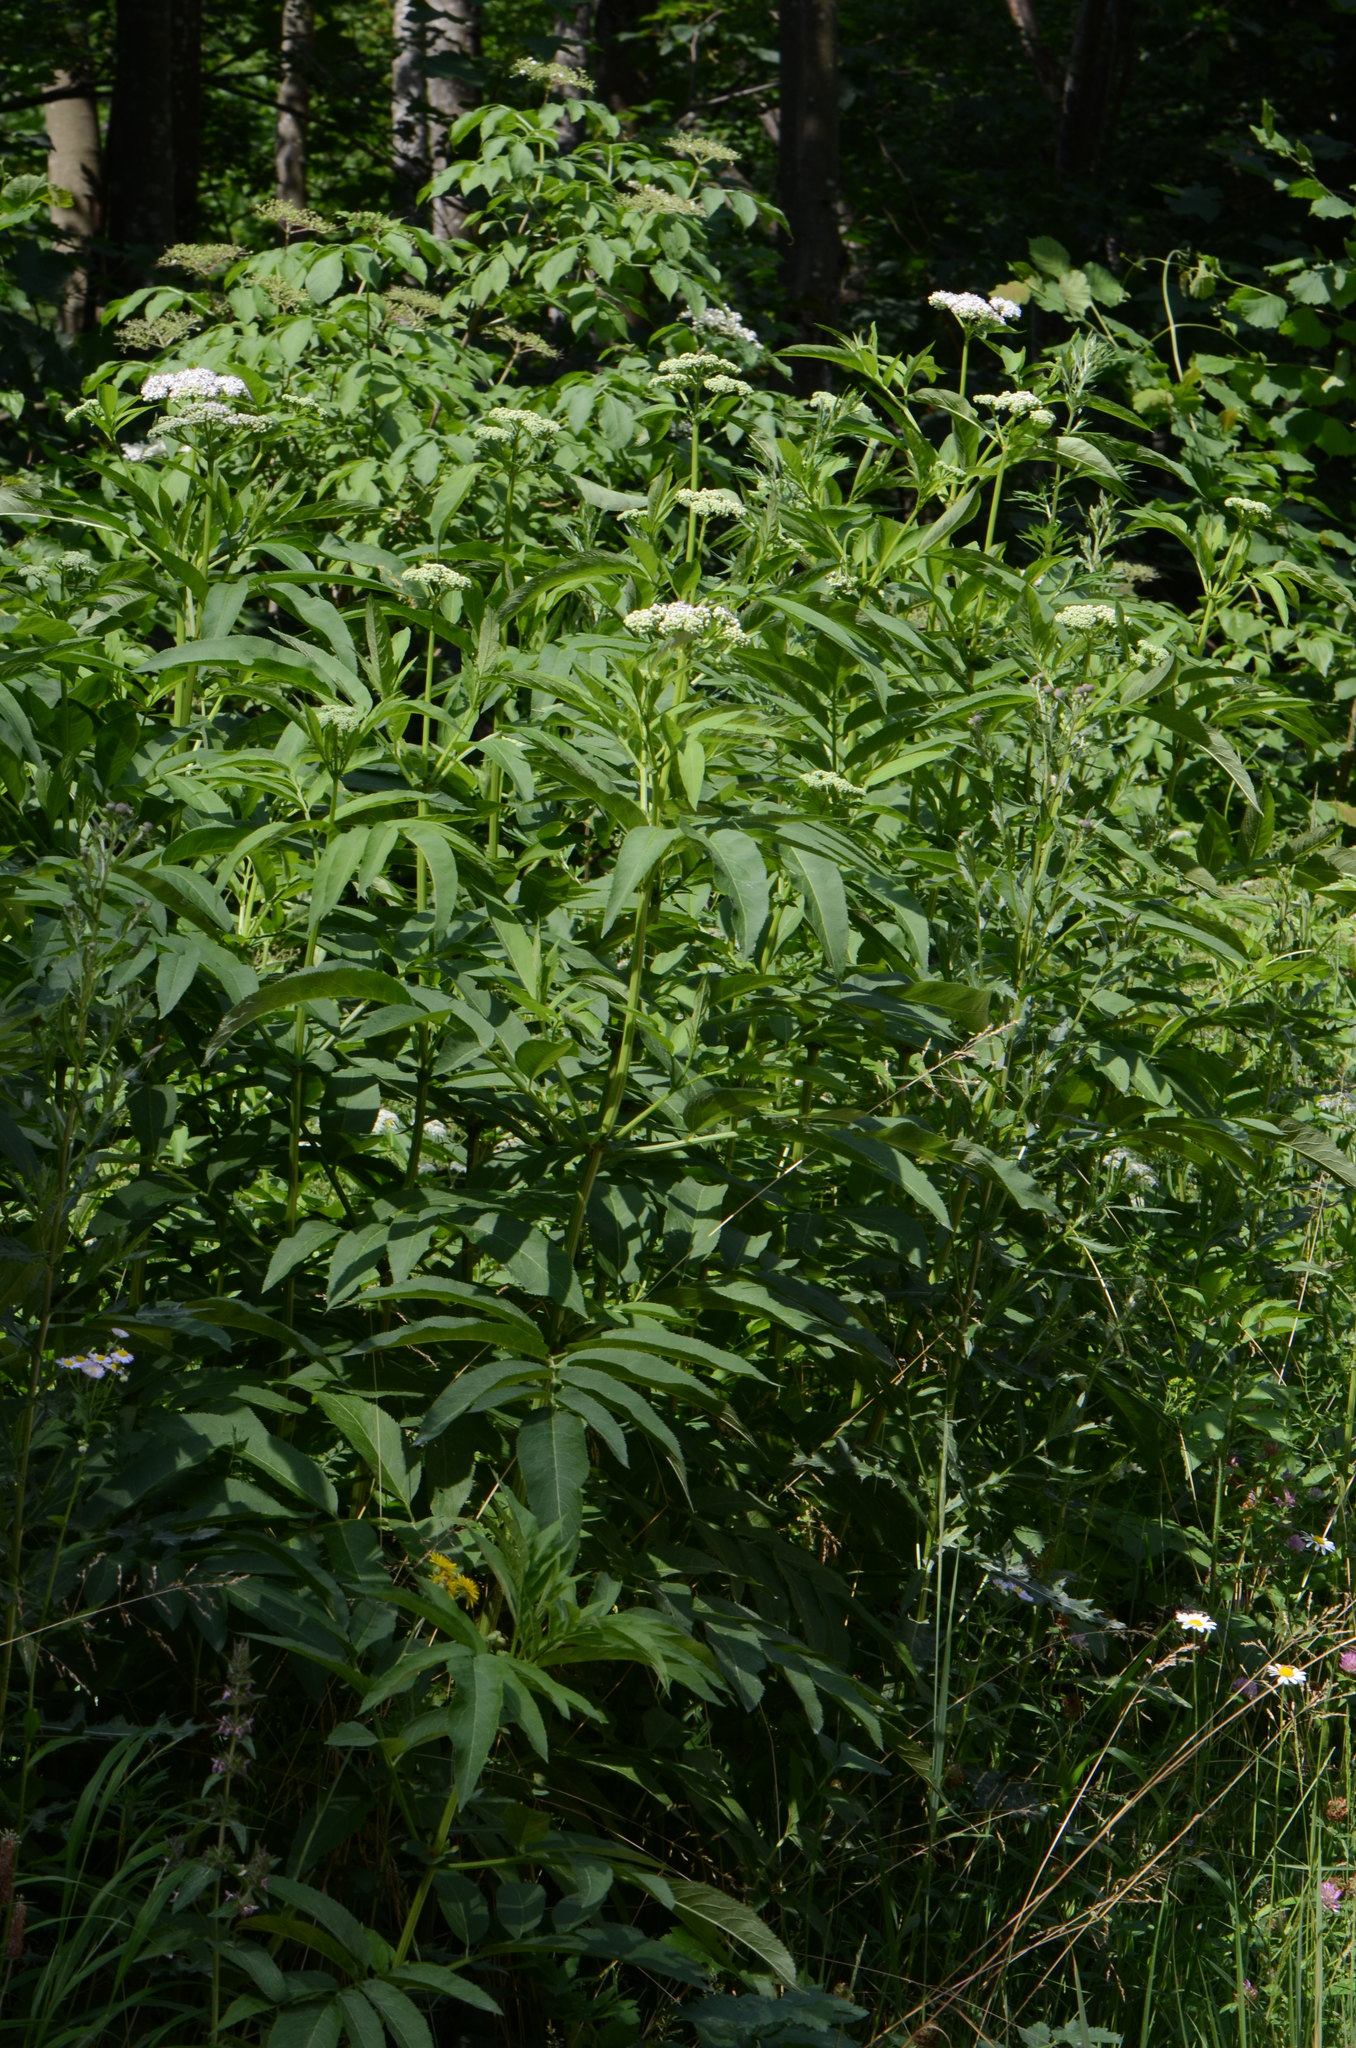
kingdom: Plantae
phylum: Tracheophyta
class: Magnoliopsida
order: Dipsacales
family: Viburnaceae
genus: Sambucus
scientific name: Sambucus ebulus
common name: Dwarf elder
